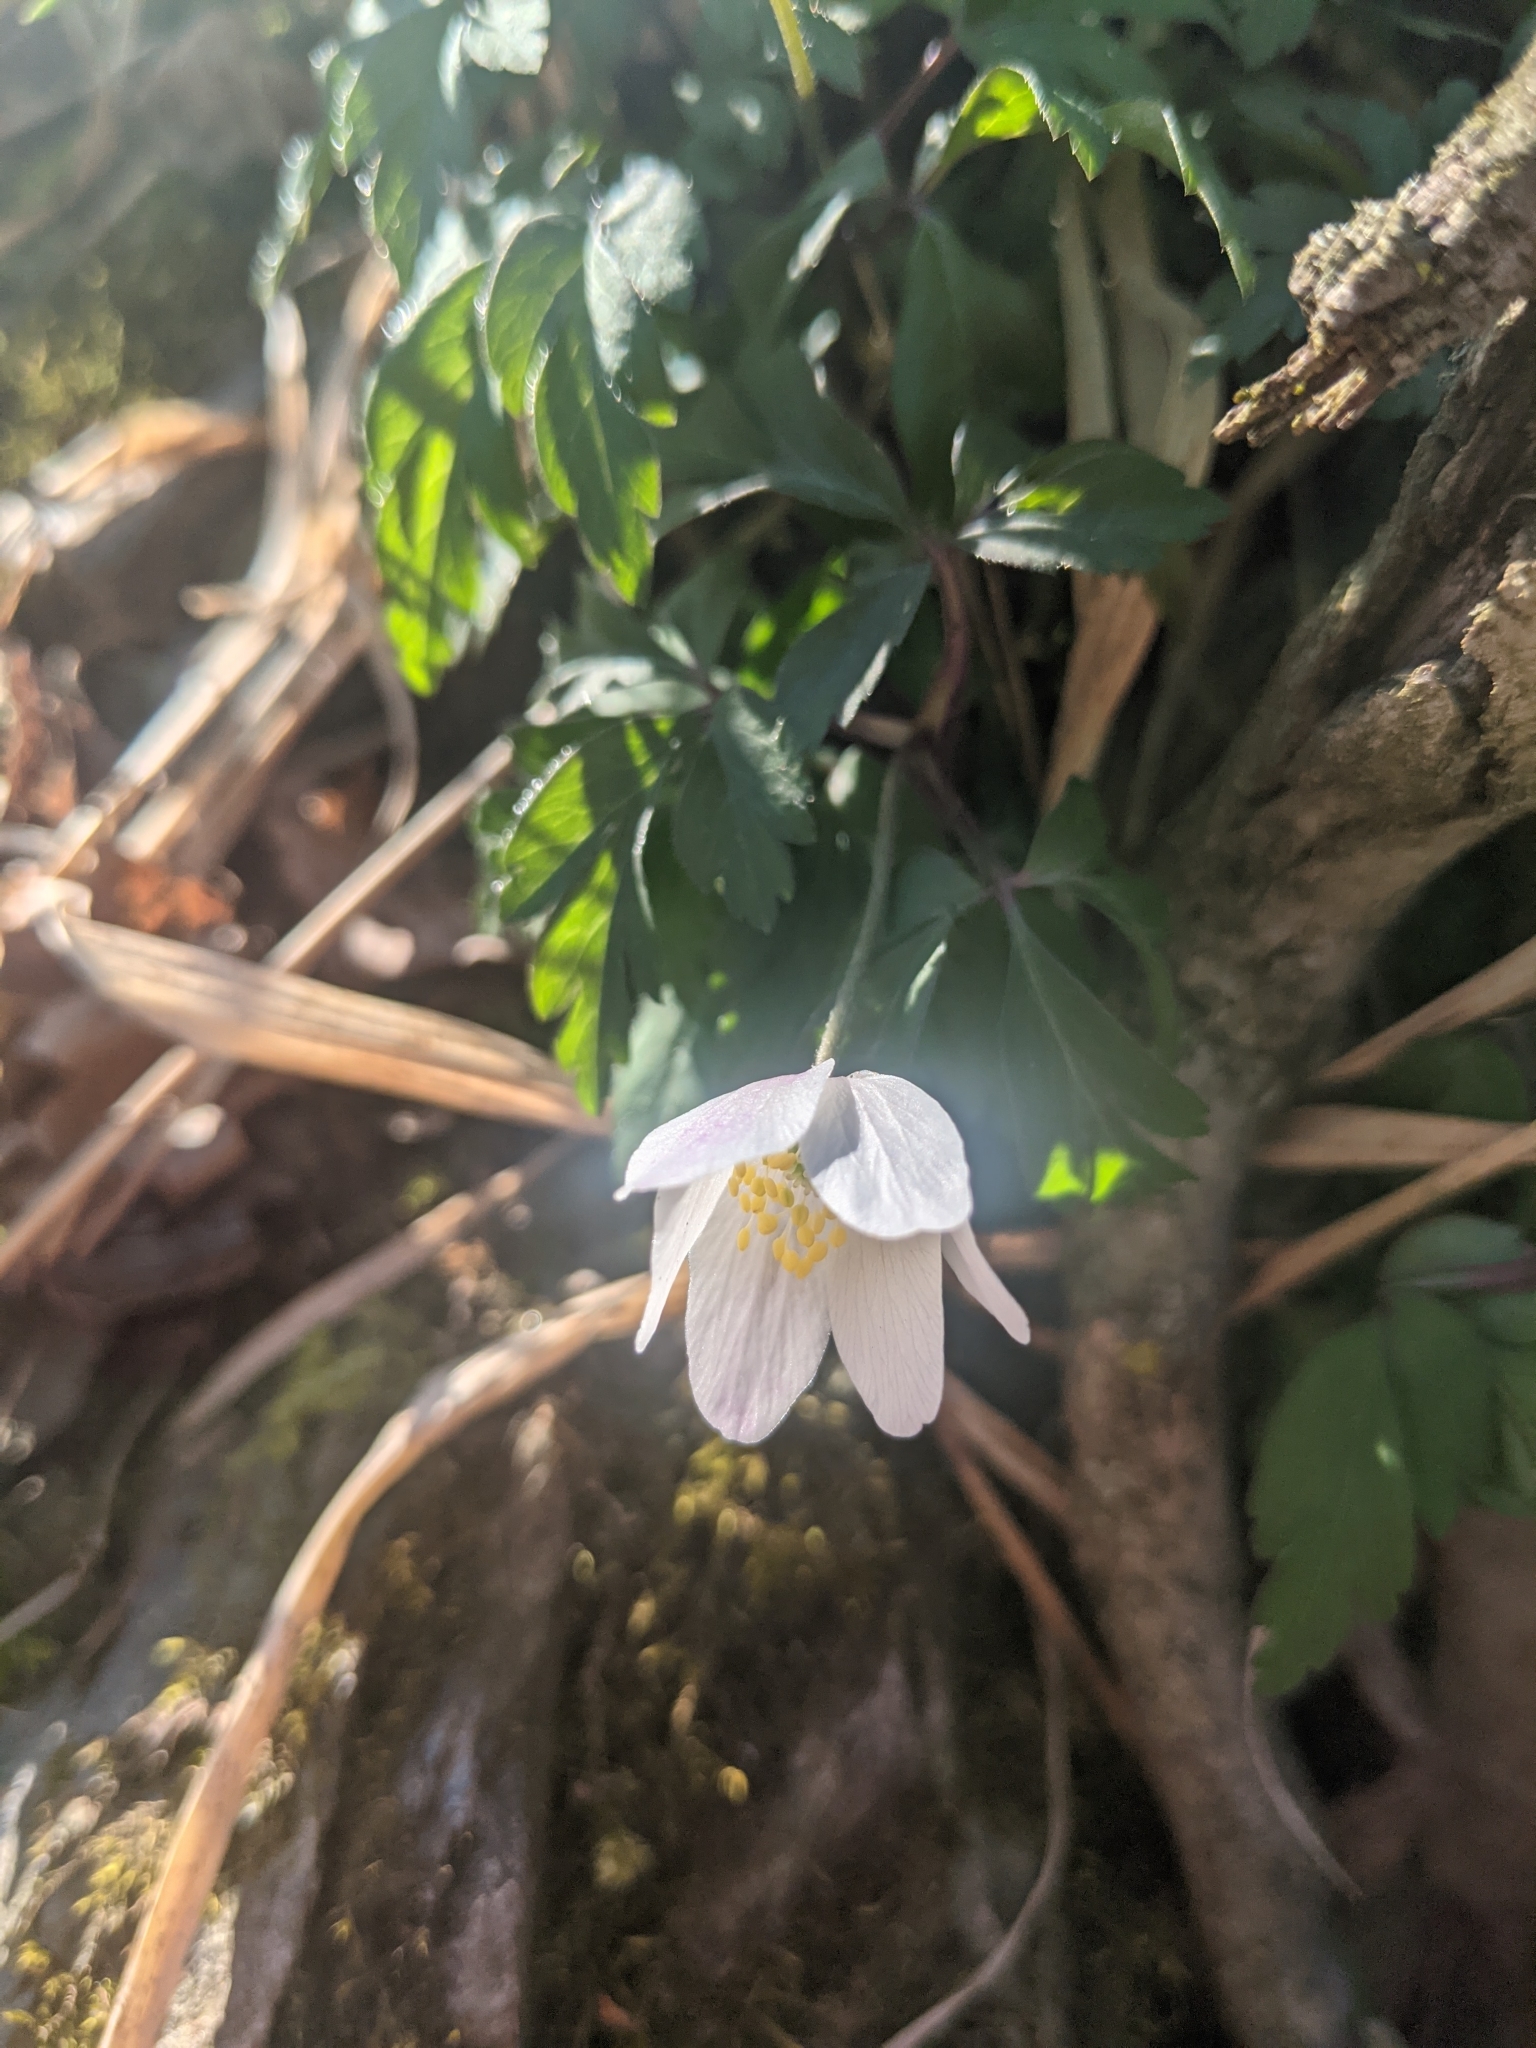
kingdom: Plantae
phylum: Tracheophyta
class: Magnoliopsida
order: Ranunculales
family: Ranunculaceae
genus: Anemone
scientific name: Anemone nemorosa
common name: Wood anemone
